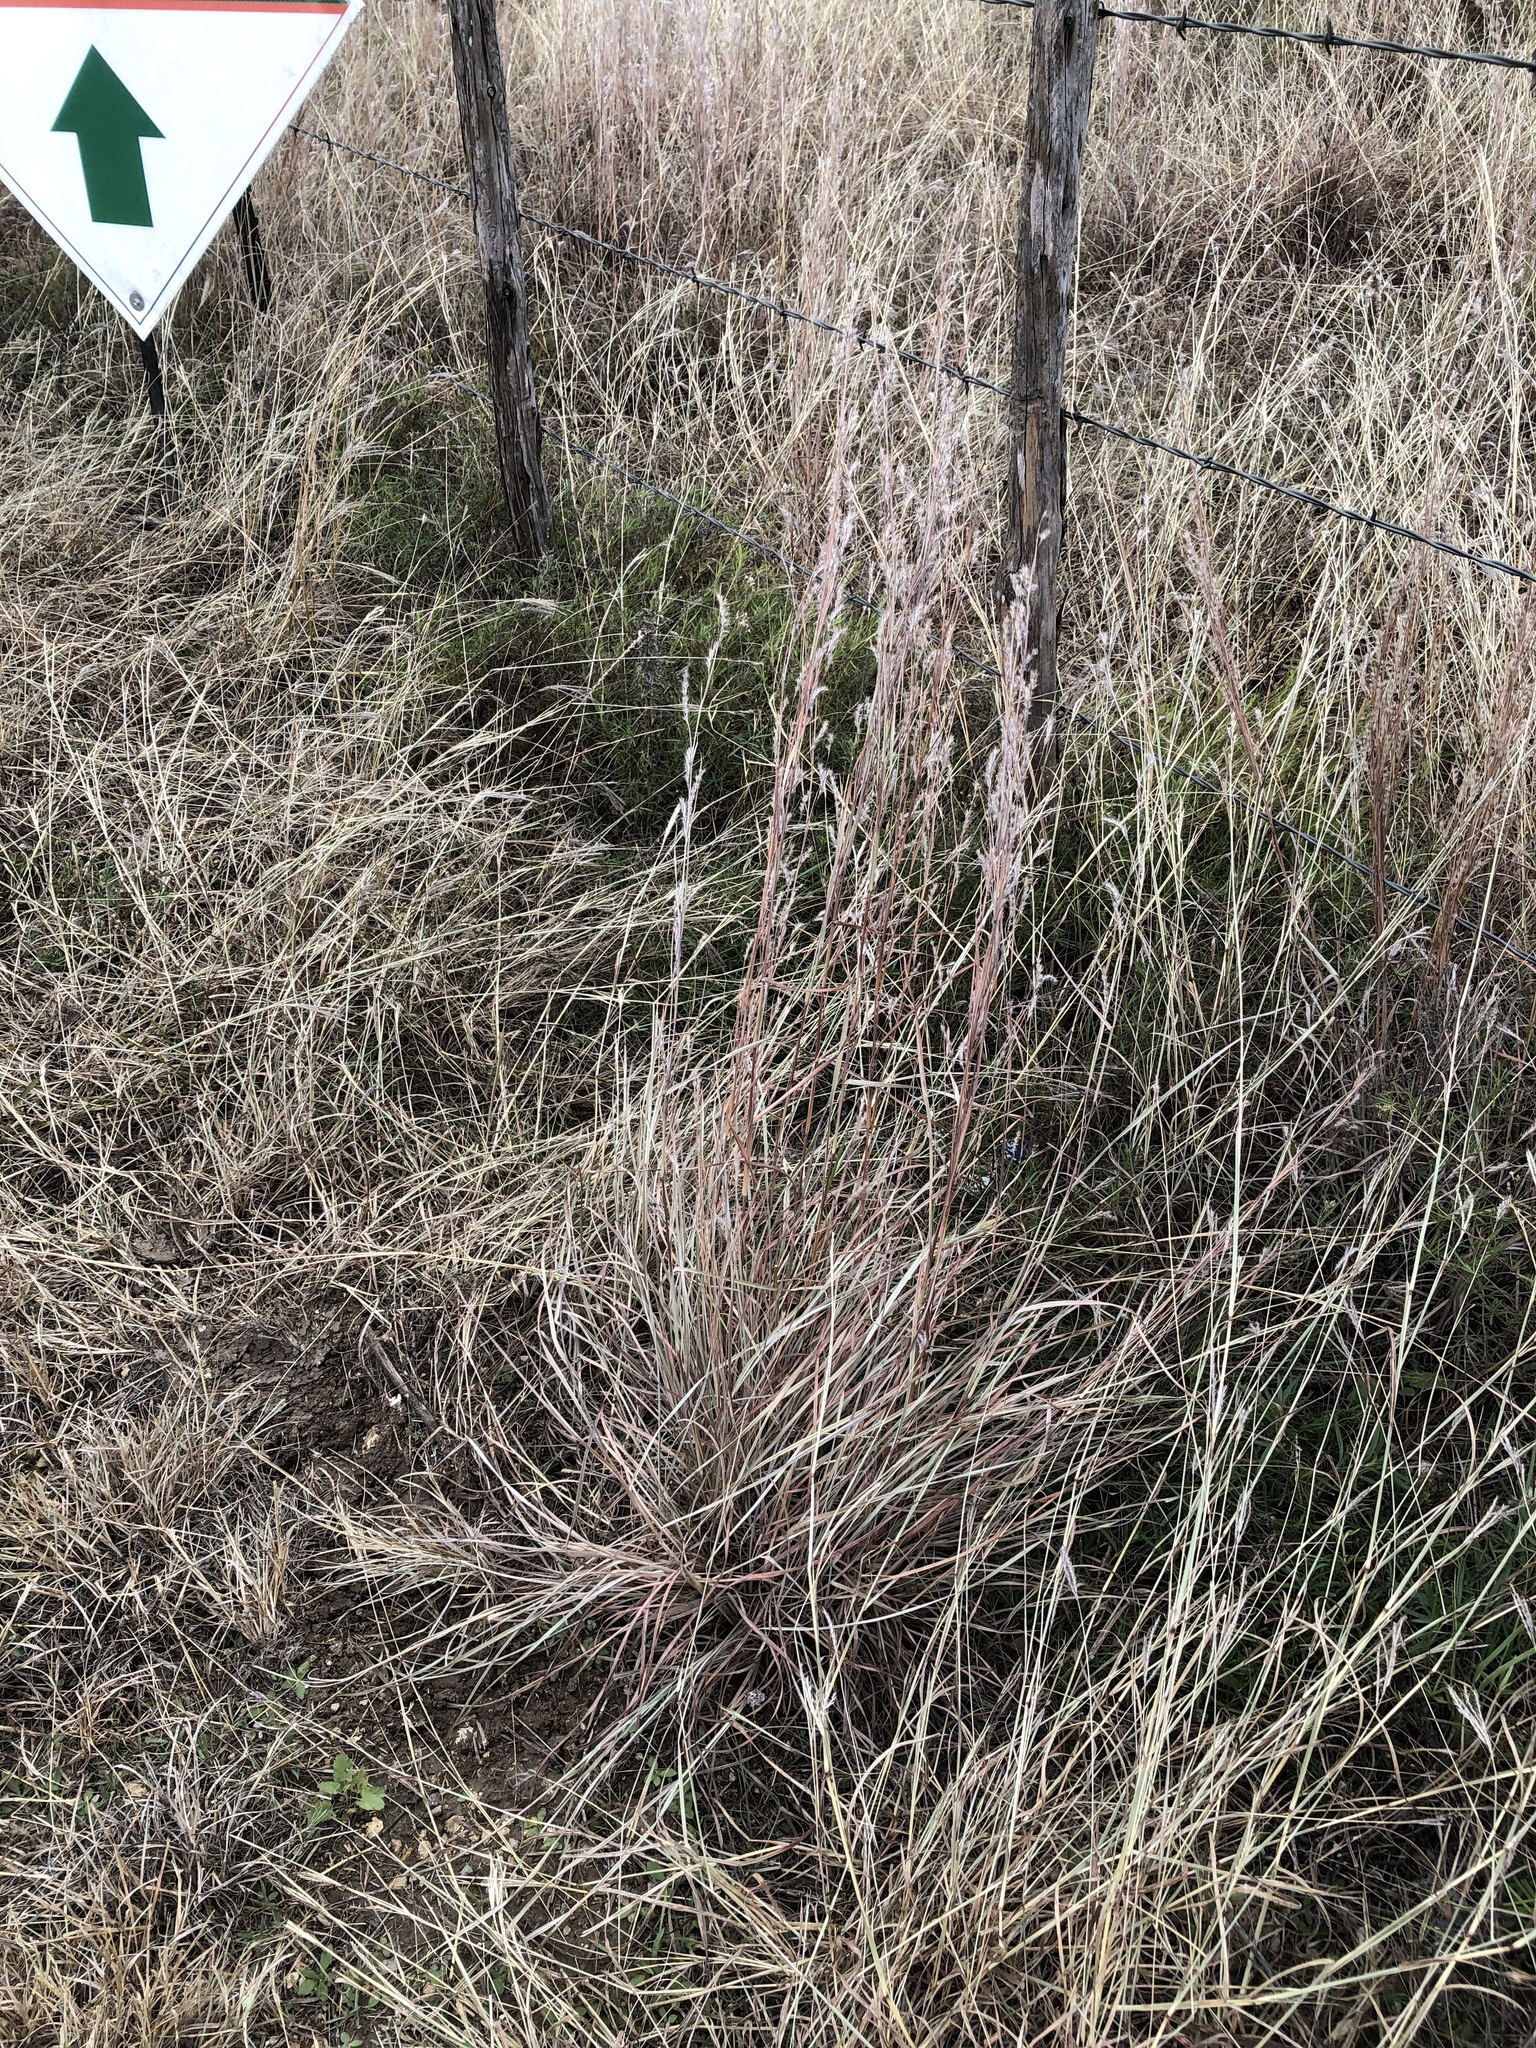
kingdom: Plantae
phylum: Tracheophyta
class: Liliopsida
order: Poales
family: Poaceae
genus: Schizachyrium
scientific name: Schizachyrium scoparium
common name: Little bluestem
